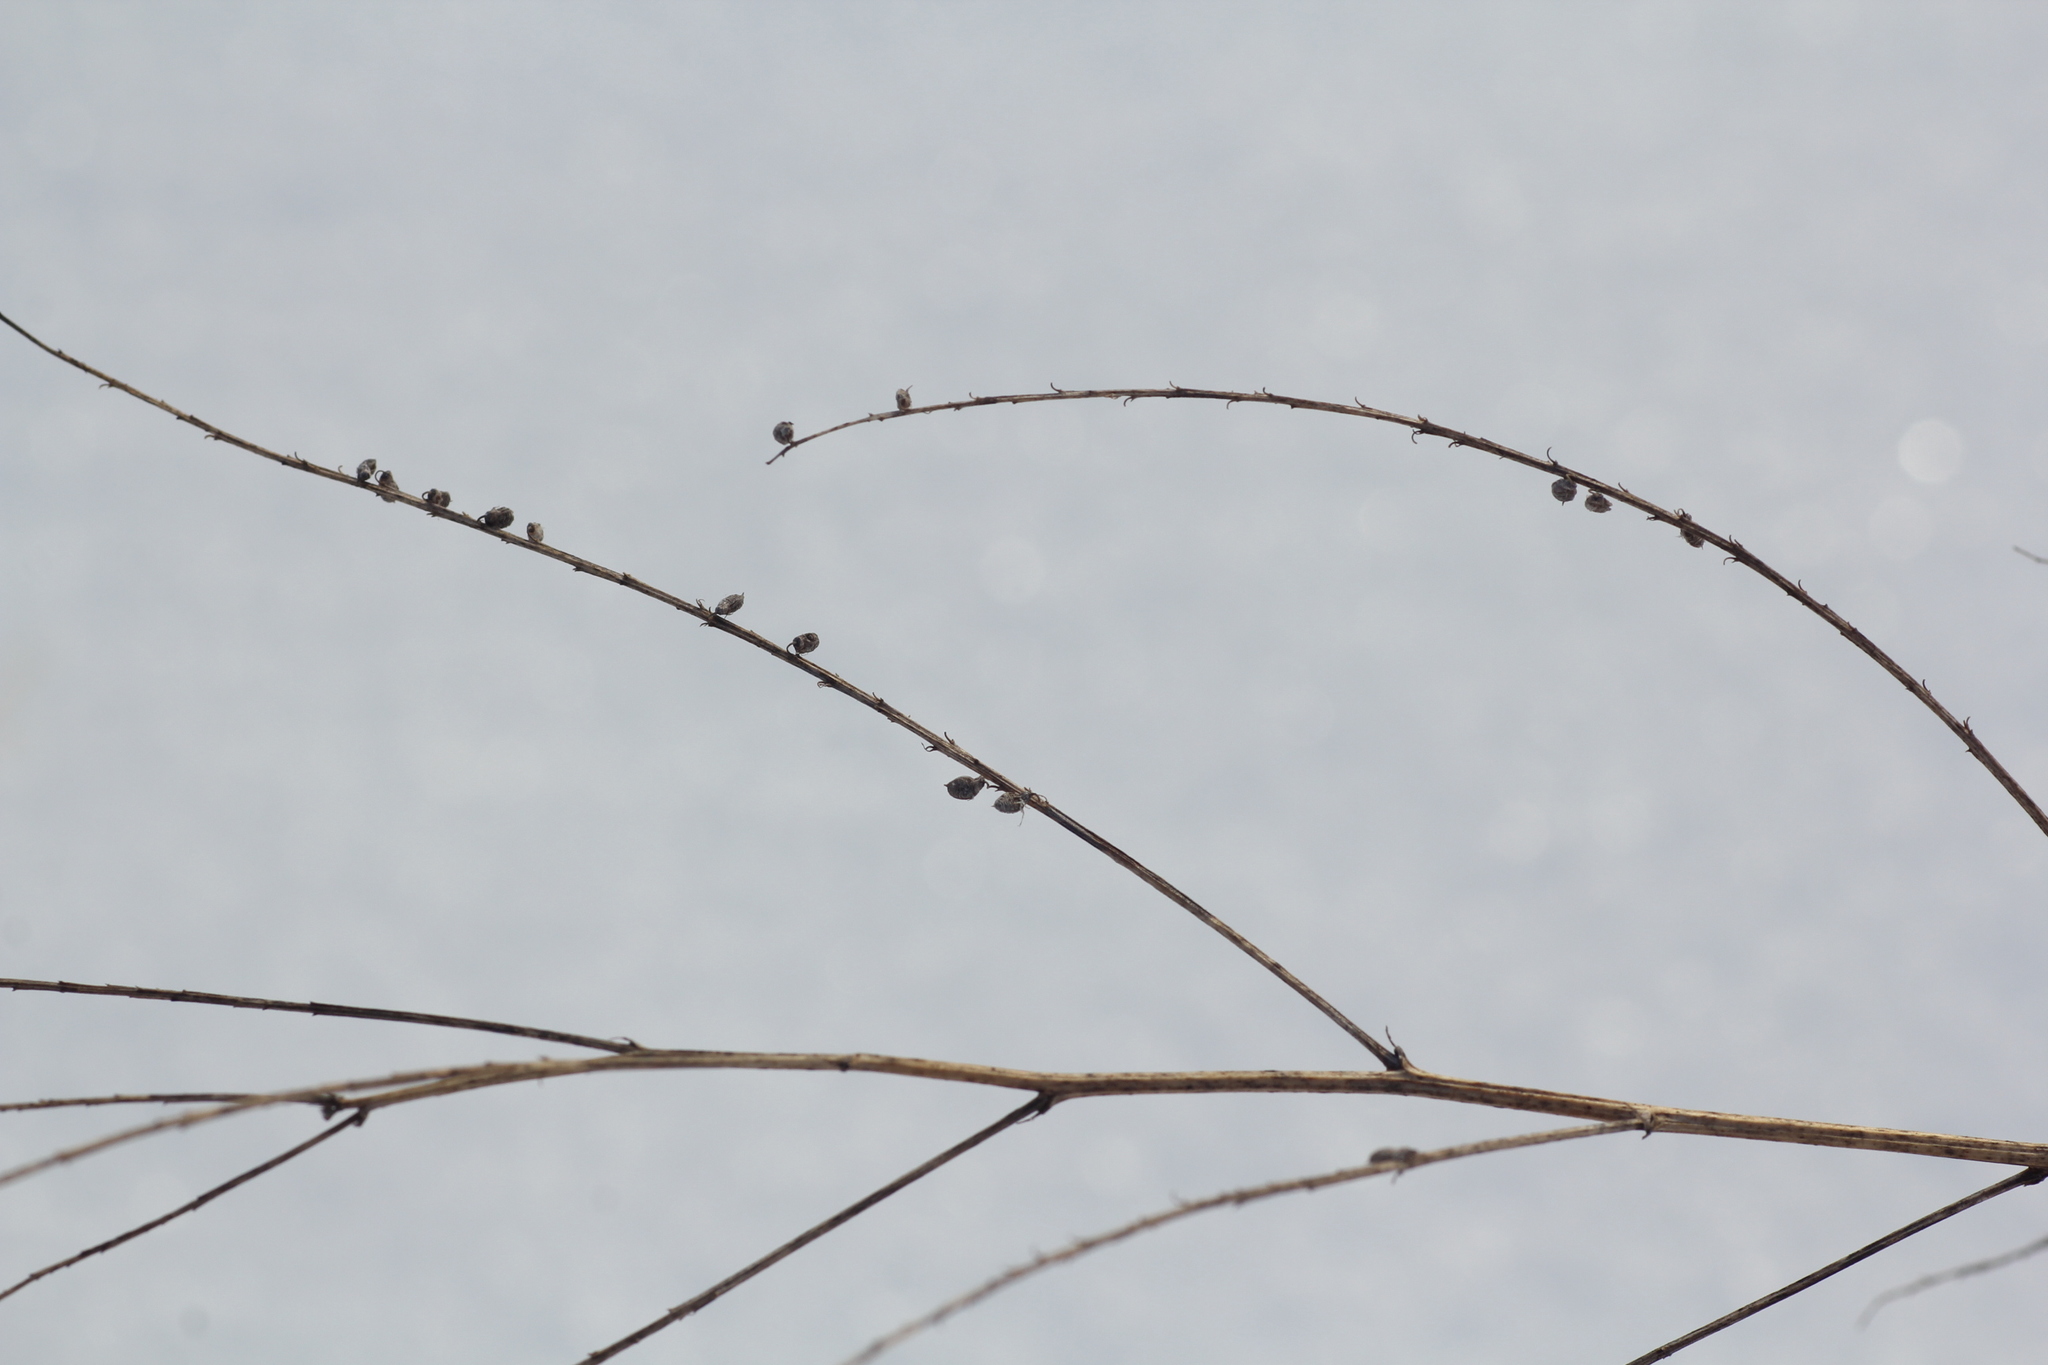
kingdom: Plantae
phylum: Tracheophyta
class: Magnoliopsida
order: Fabales
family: Fabaceae
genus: Melilotus
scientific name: Melilotus albus
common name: White melilot
